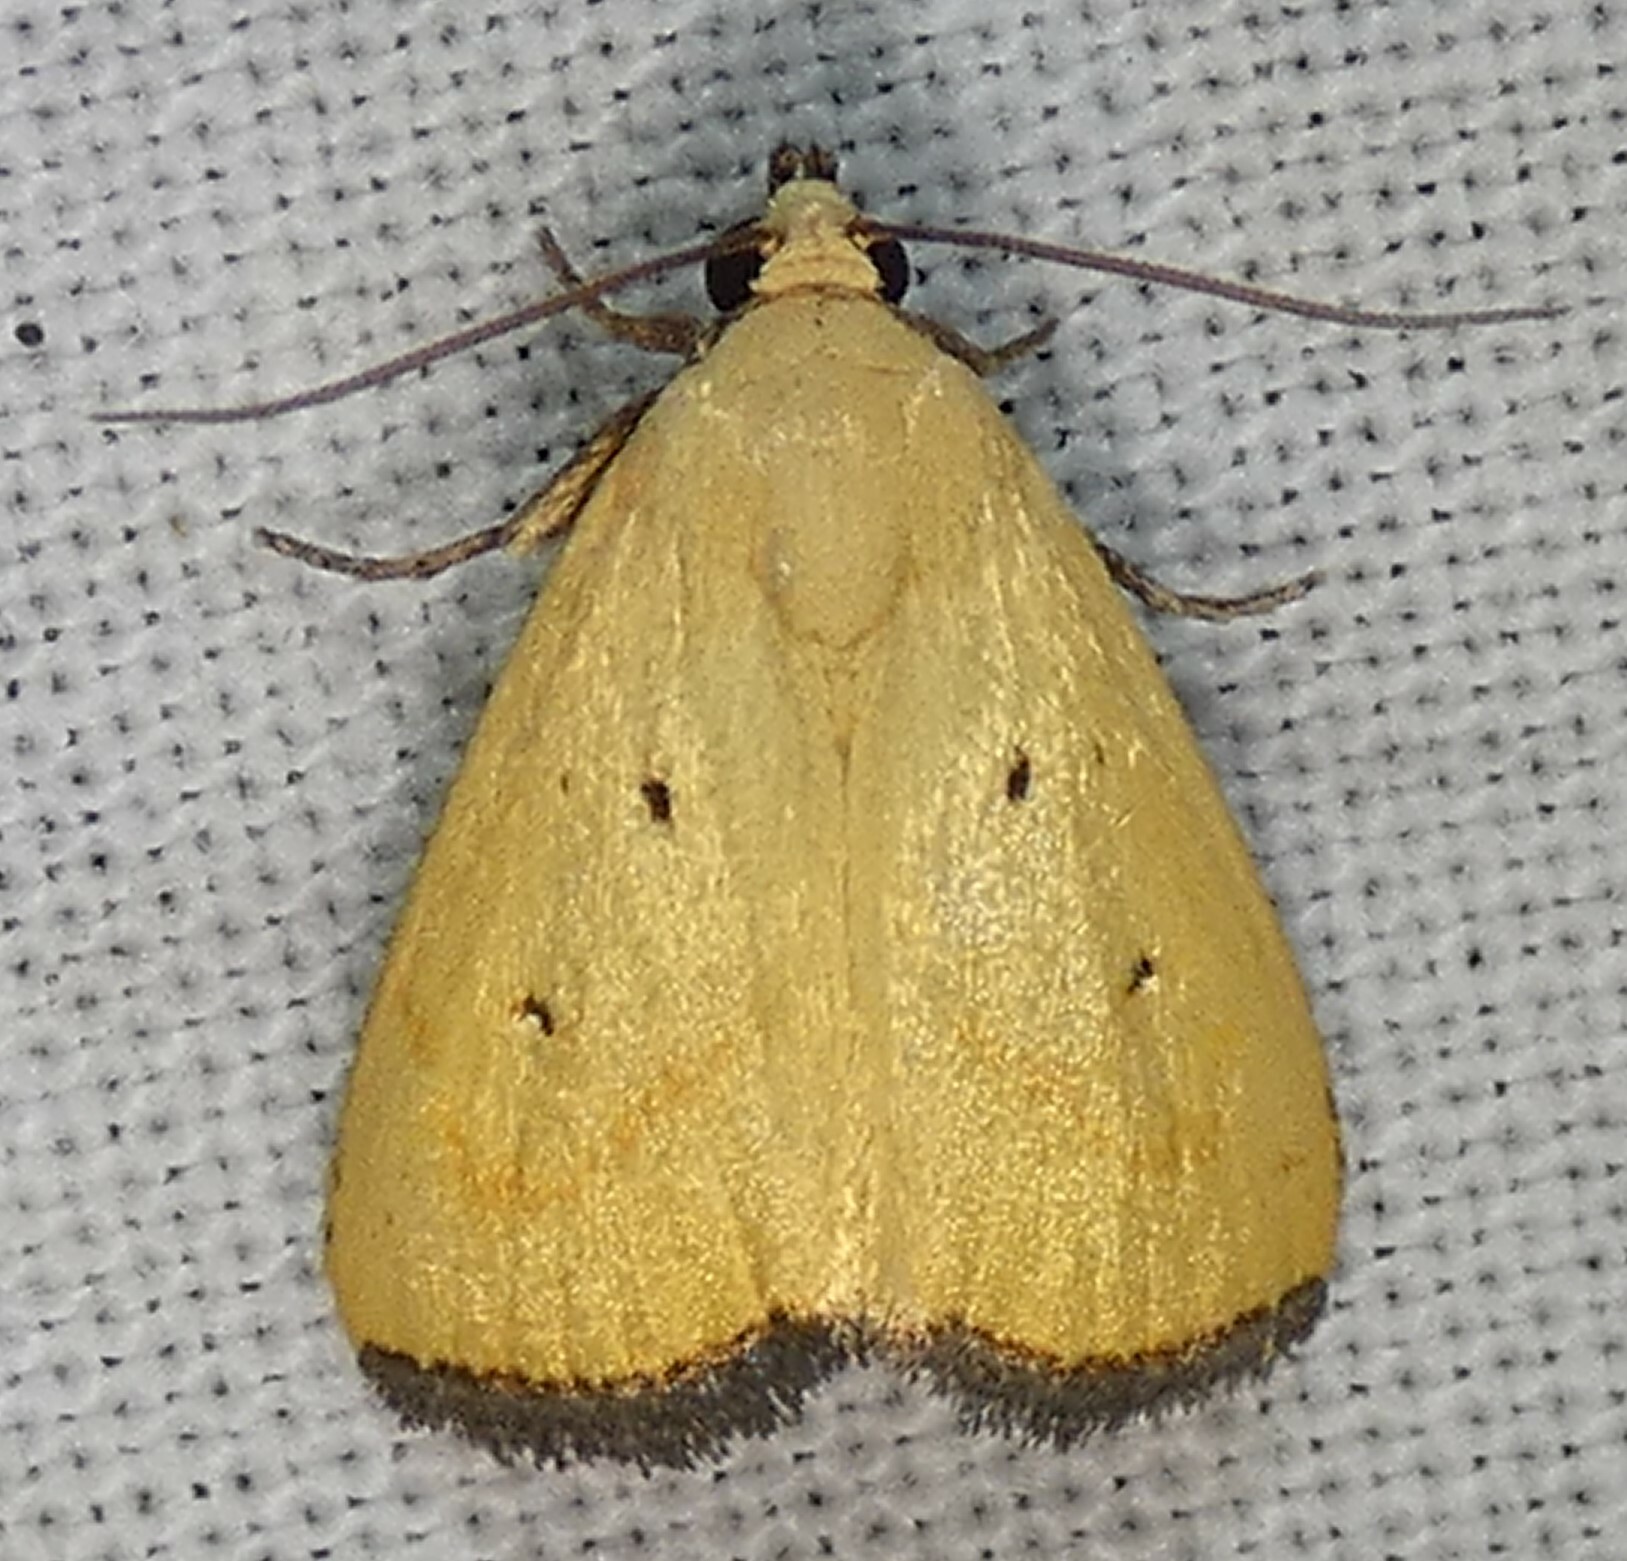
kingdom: Animalia
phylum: Arthropoda
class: Insecta
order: Lepidoptera
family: Noctuidae
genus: Marimatha
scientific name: Marimatha nigrofimbria
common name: Black-bordered lemon moth
